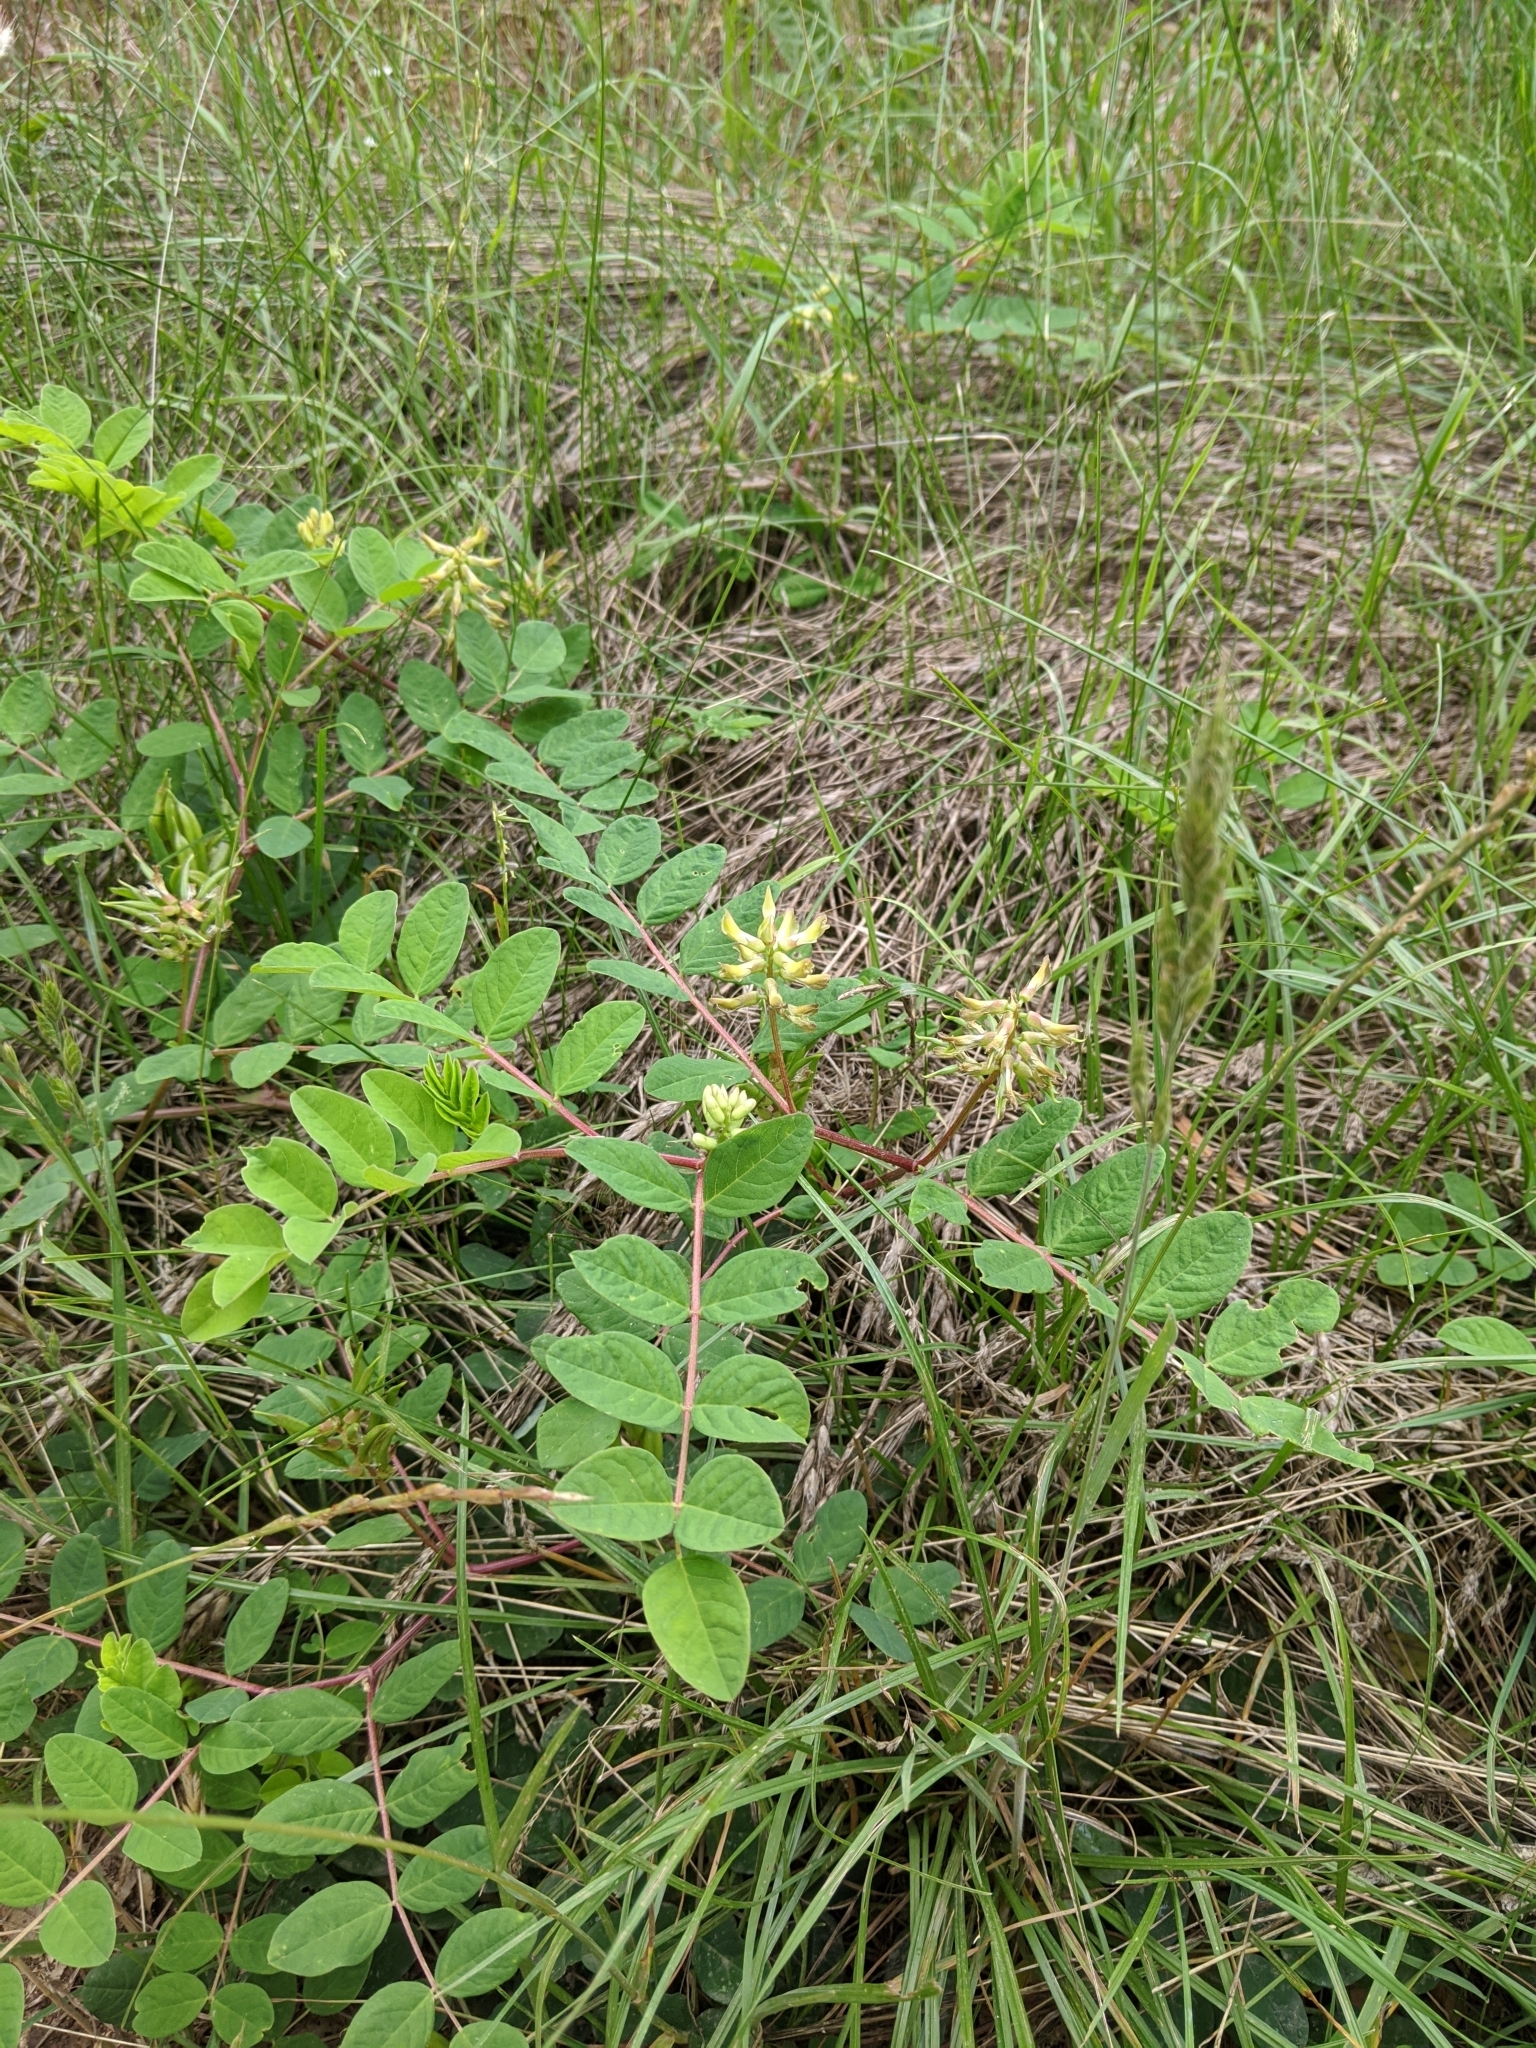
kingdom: Plantae
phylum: Tracheophyta
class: Magnoliopsida
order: Fabales
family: Fabaceae
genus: Astragalus
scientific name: Astragalus glycyphyllos
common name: Wild liquorice
